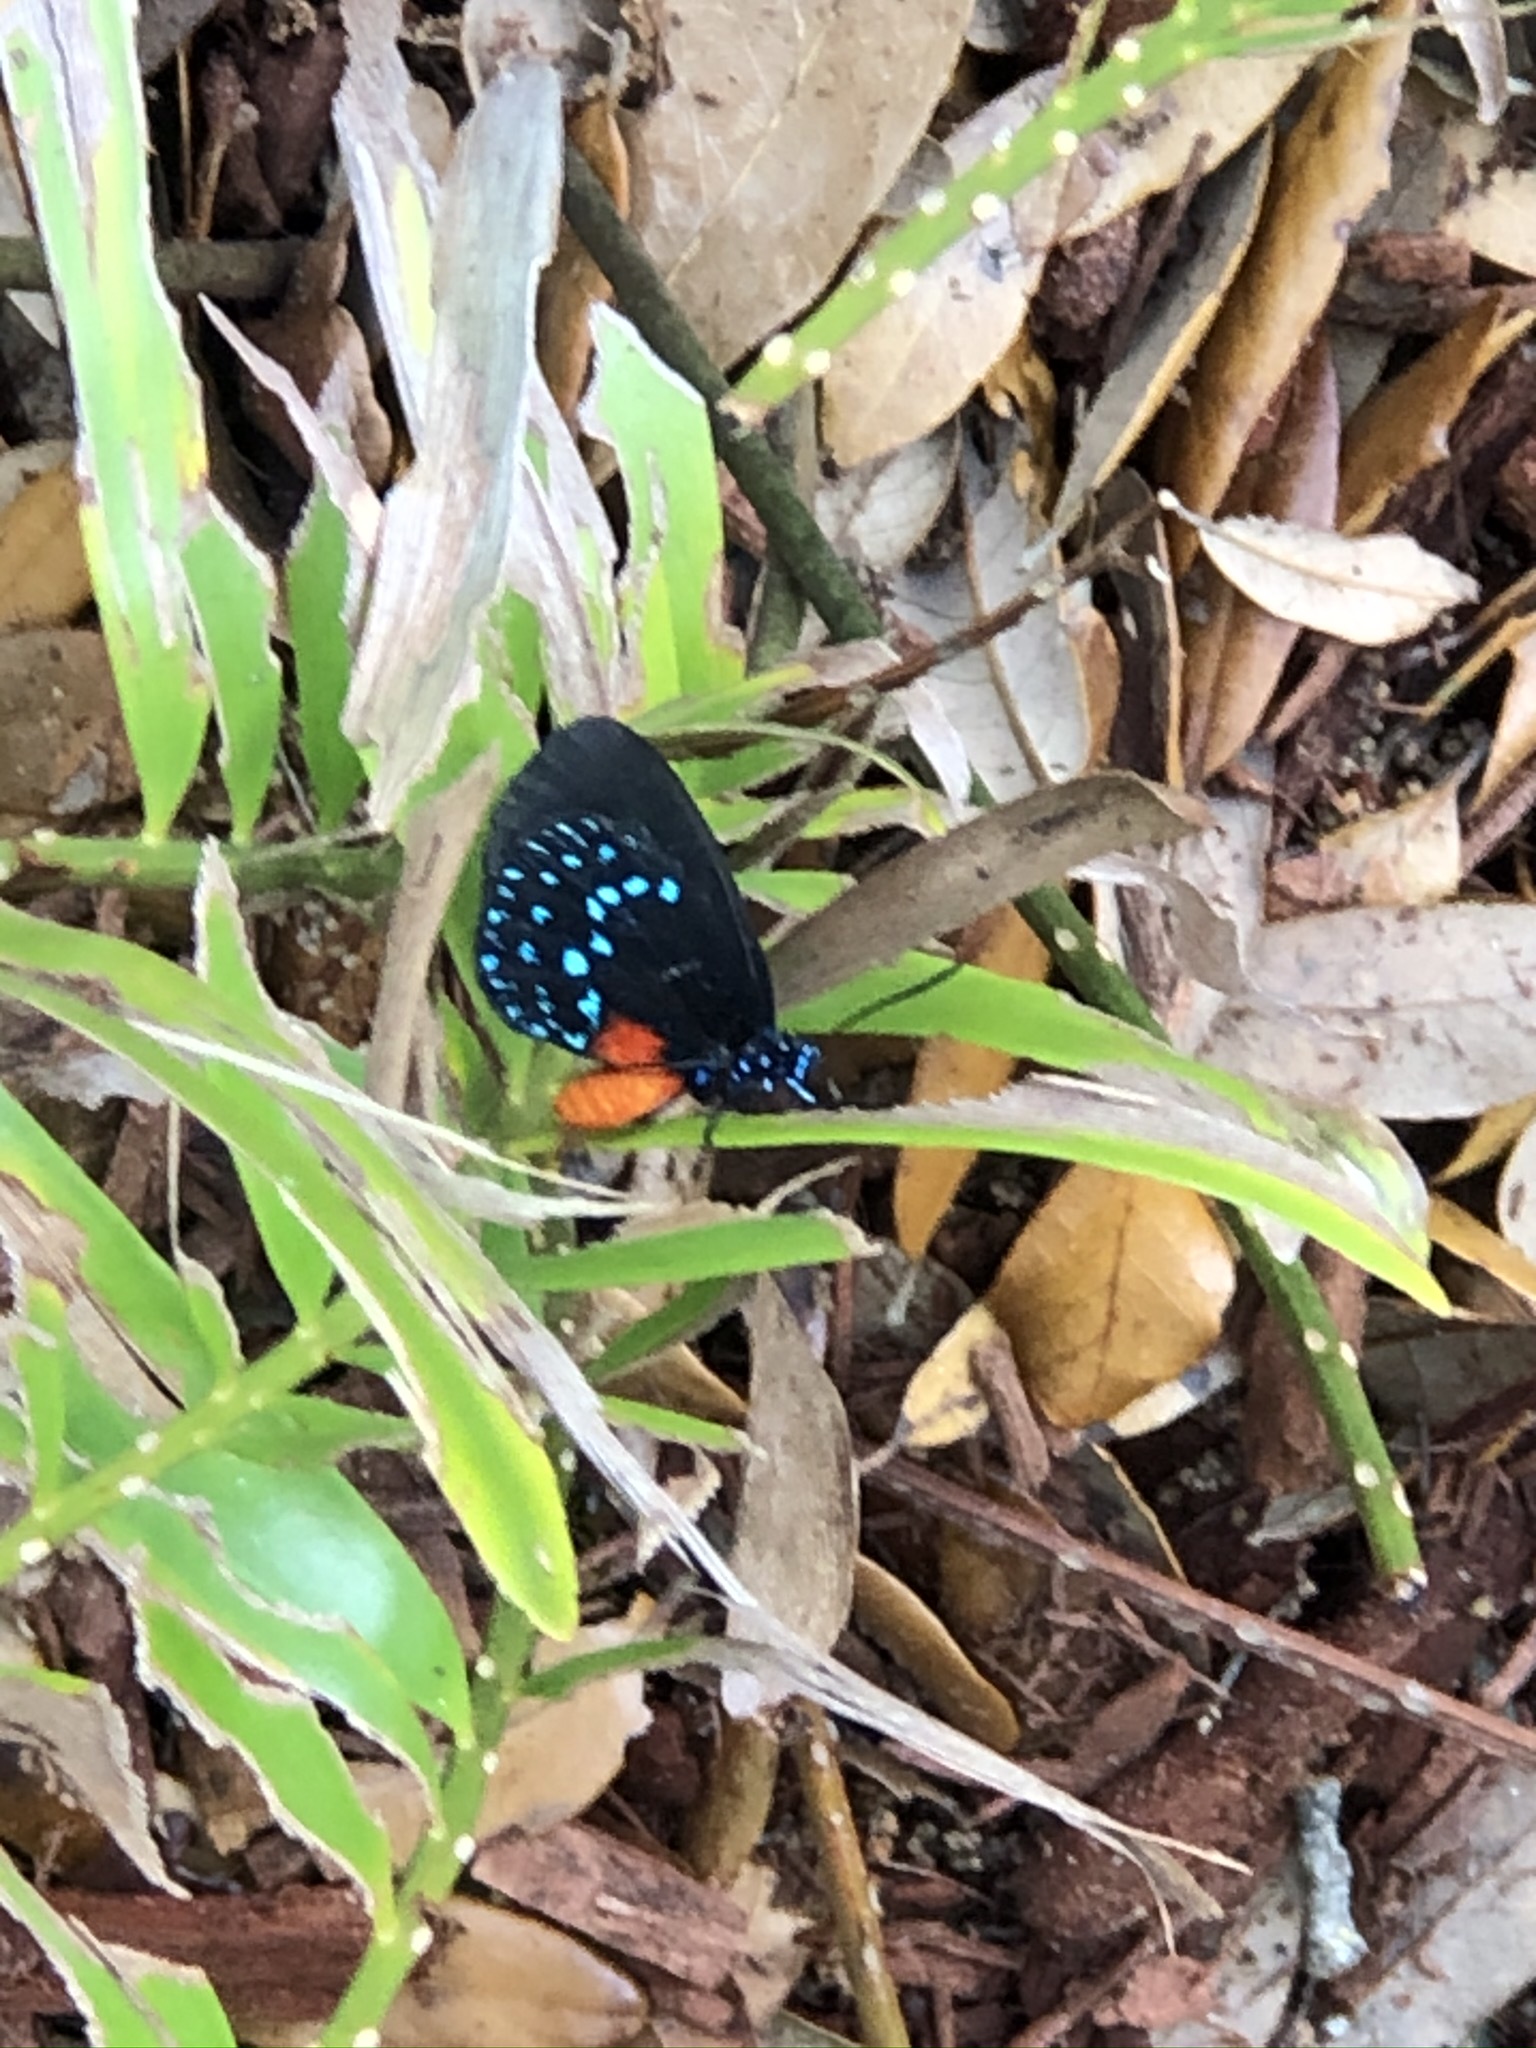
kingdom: Animalia
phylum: Arthropoda
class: Insecta
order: Lepidoptera
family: Lycaenidae
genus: Eumaeus
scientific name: Eumaeus atala
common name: Atala
